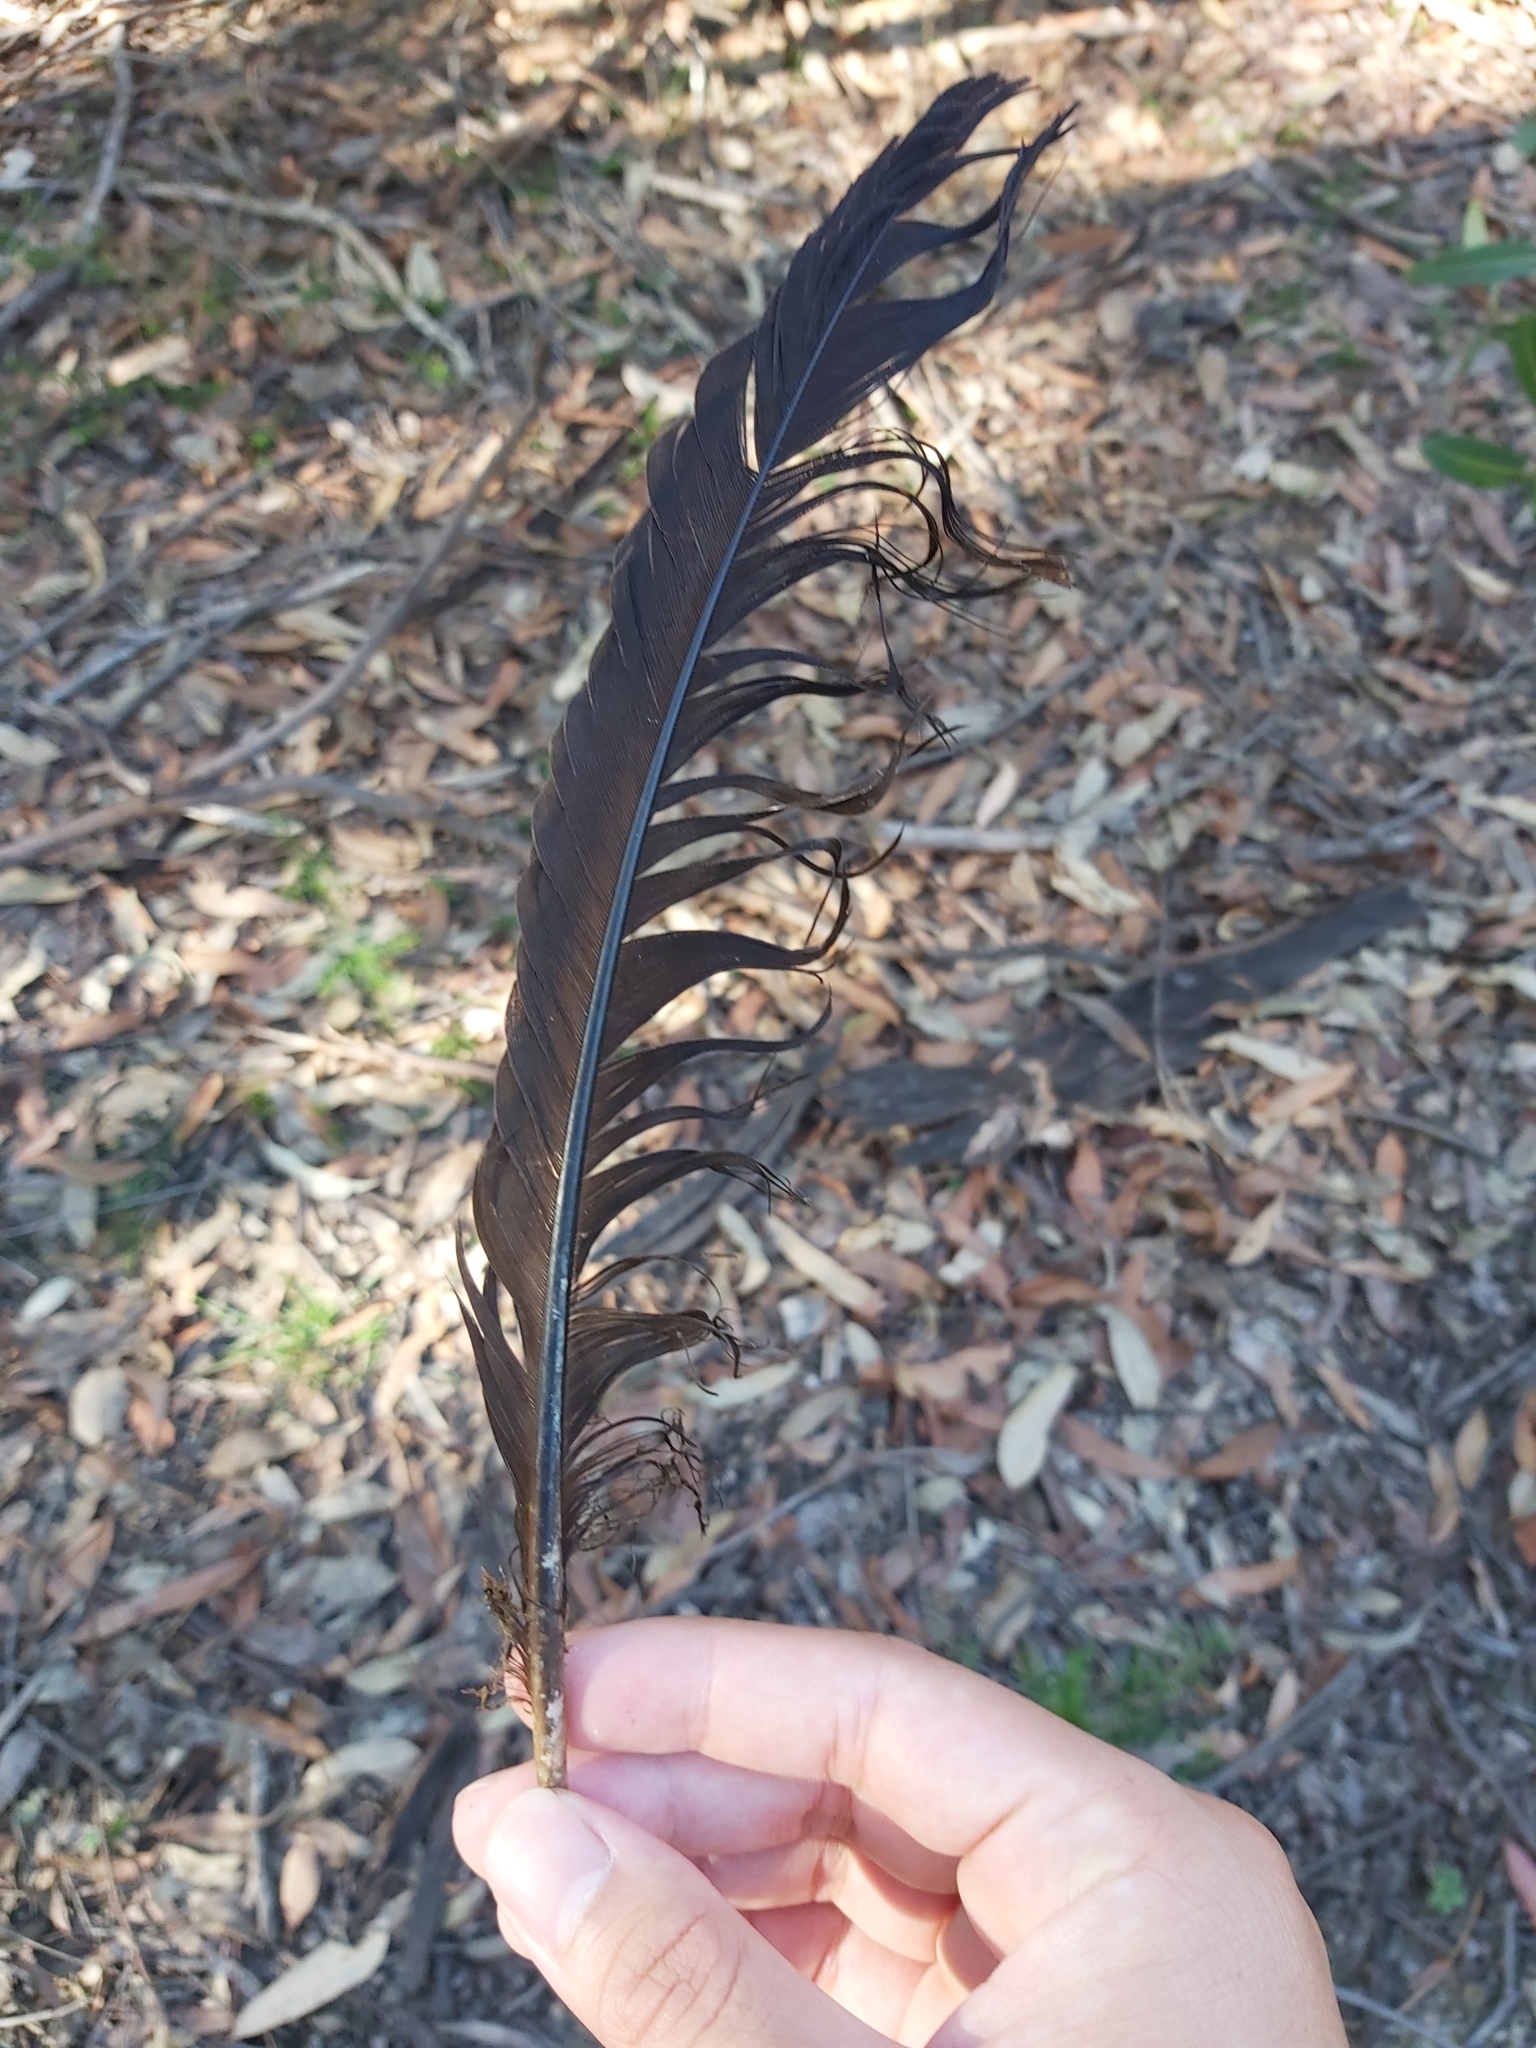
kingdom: Animalia
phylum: Chordata
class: Aves
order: Galliformes
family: Megapodiidae
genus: Alectura
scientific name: Alectura lathami
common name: Australian brushturkey
